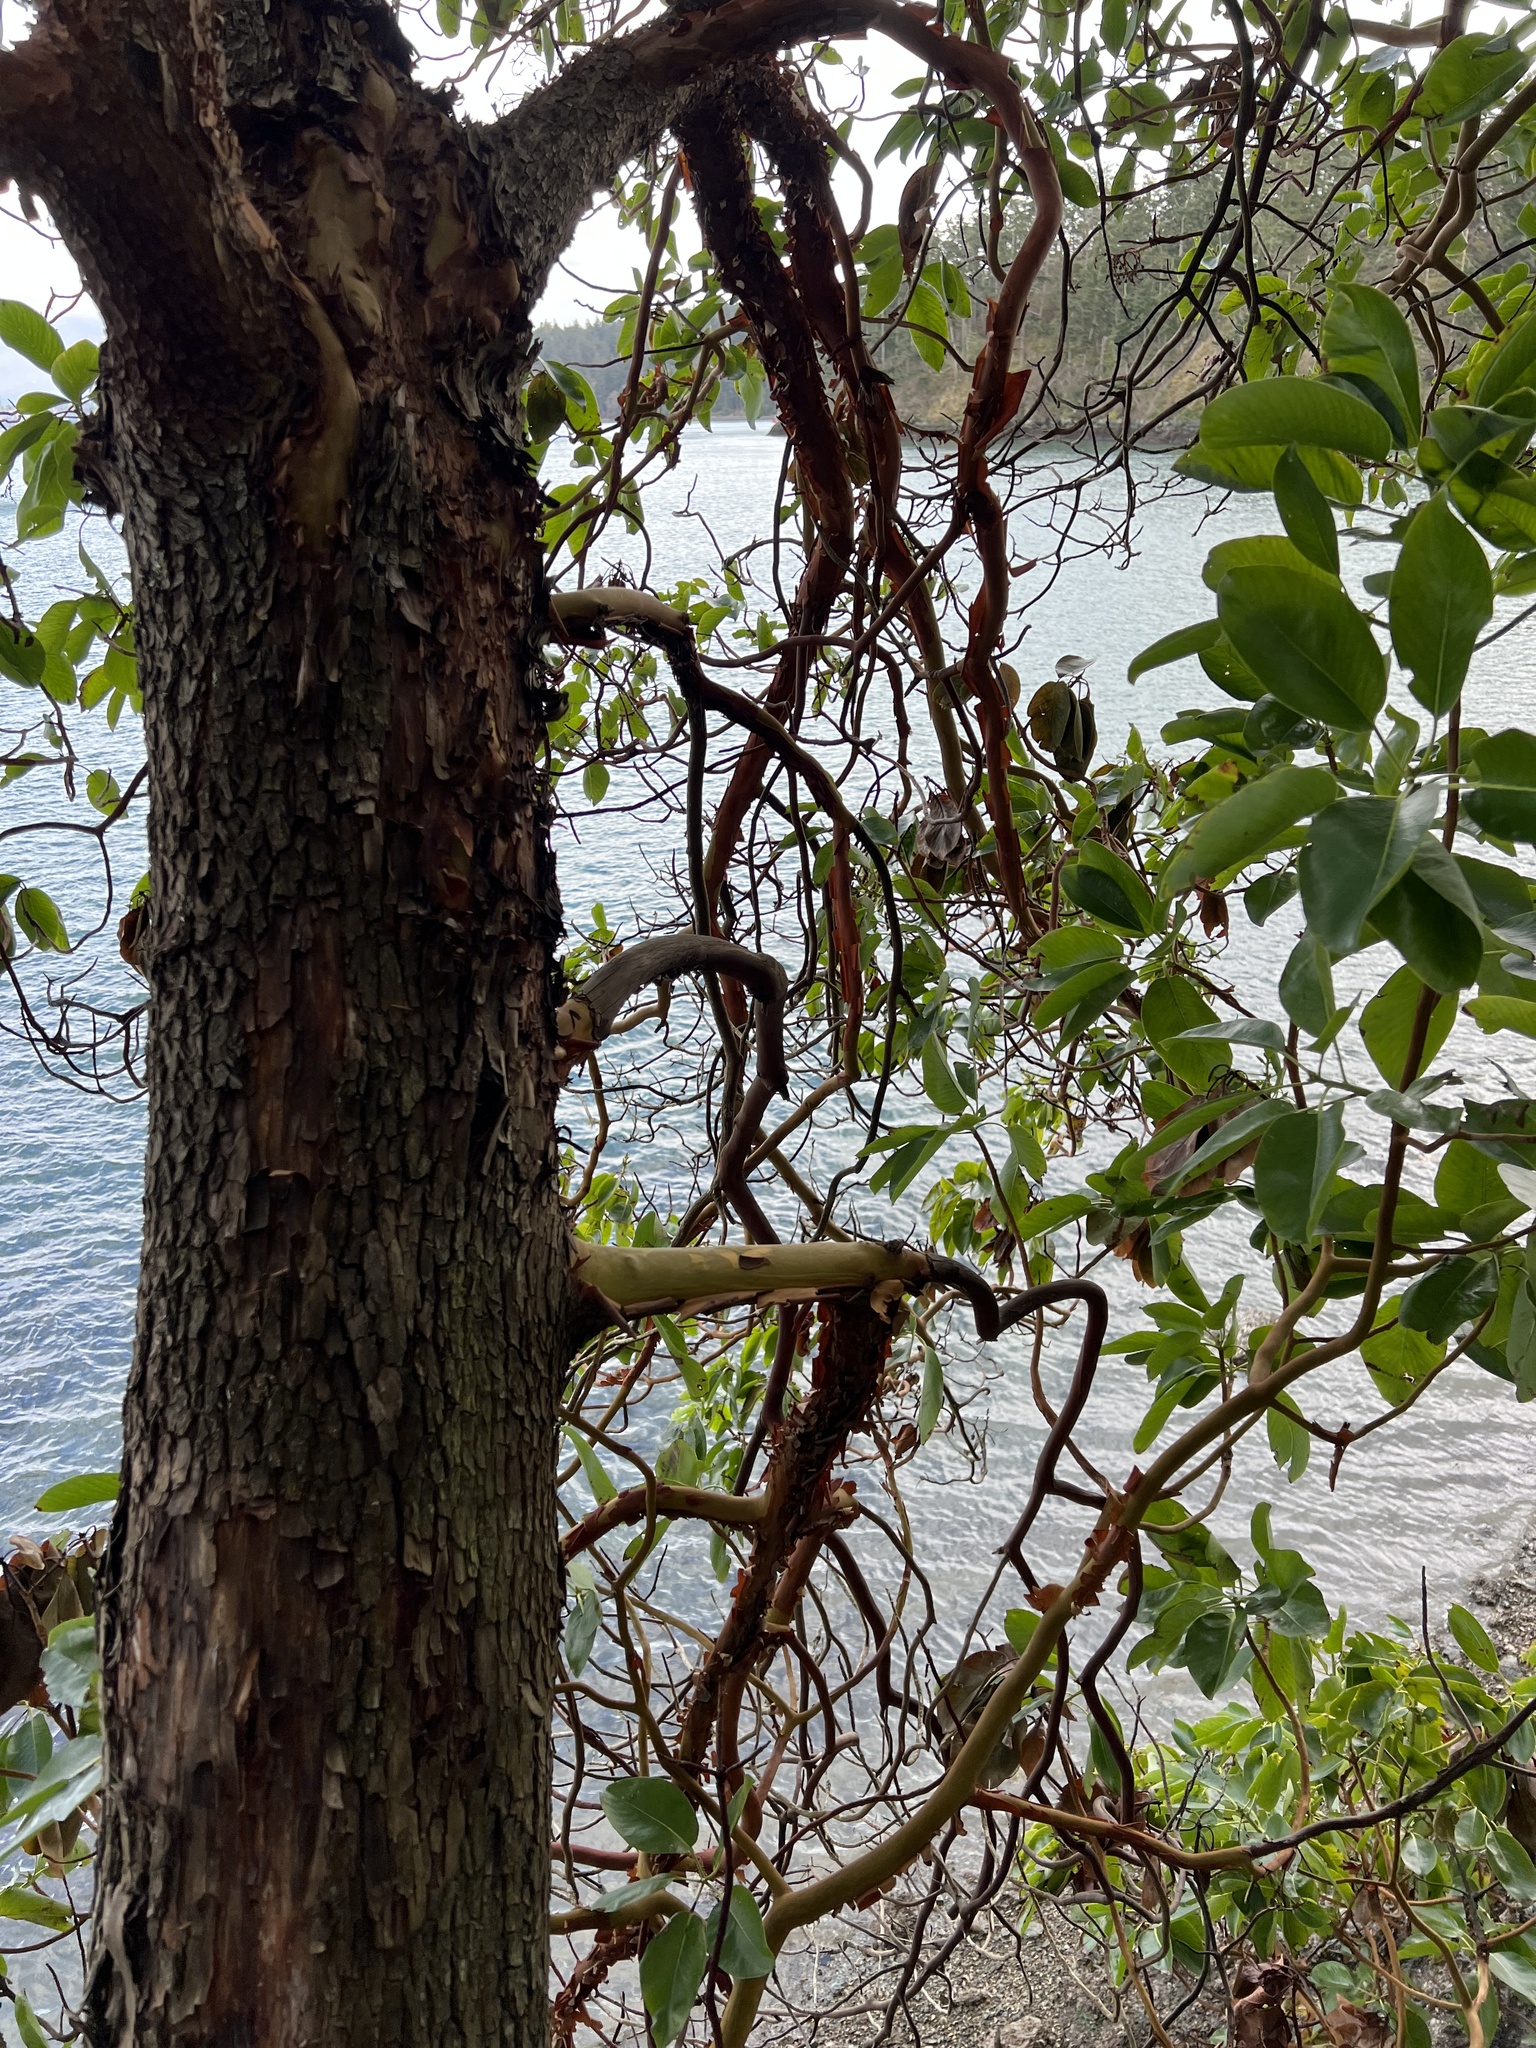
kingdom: Plantae
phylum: Tracheophyta
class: Magnoliopsida
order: Ericales
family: Ericaceae
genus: Arbutus
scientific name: Arbutus menziesii
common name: Pacific madrone
